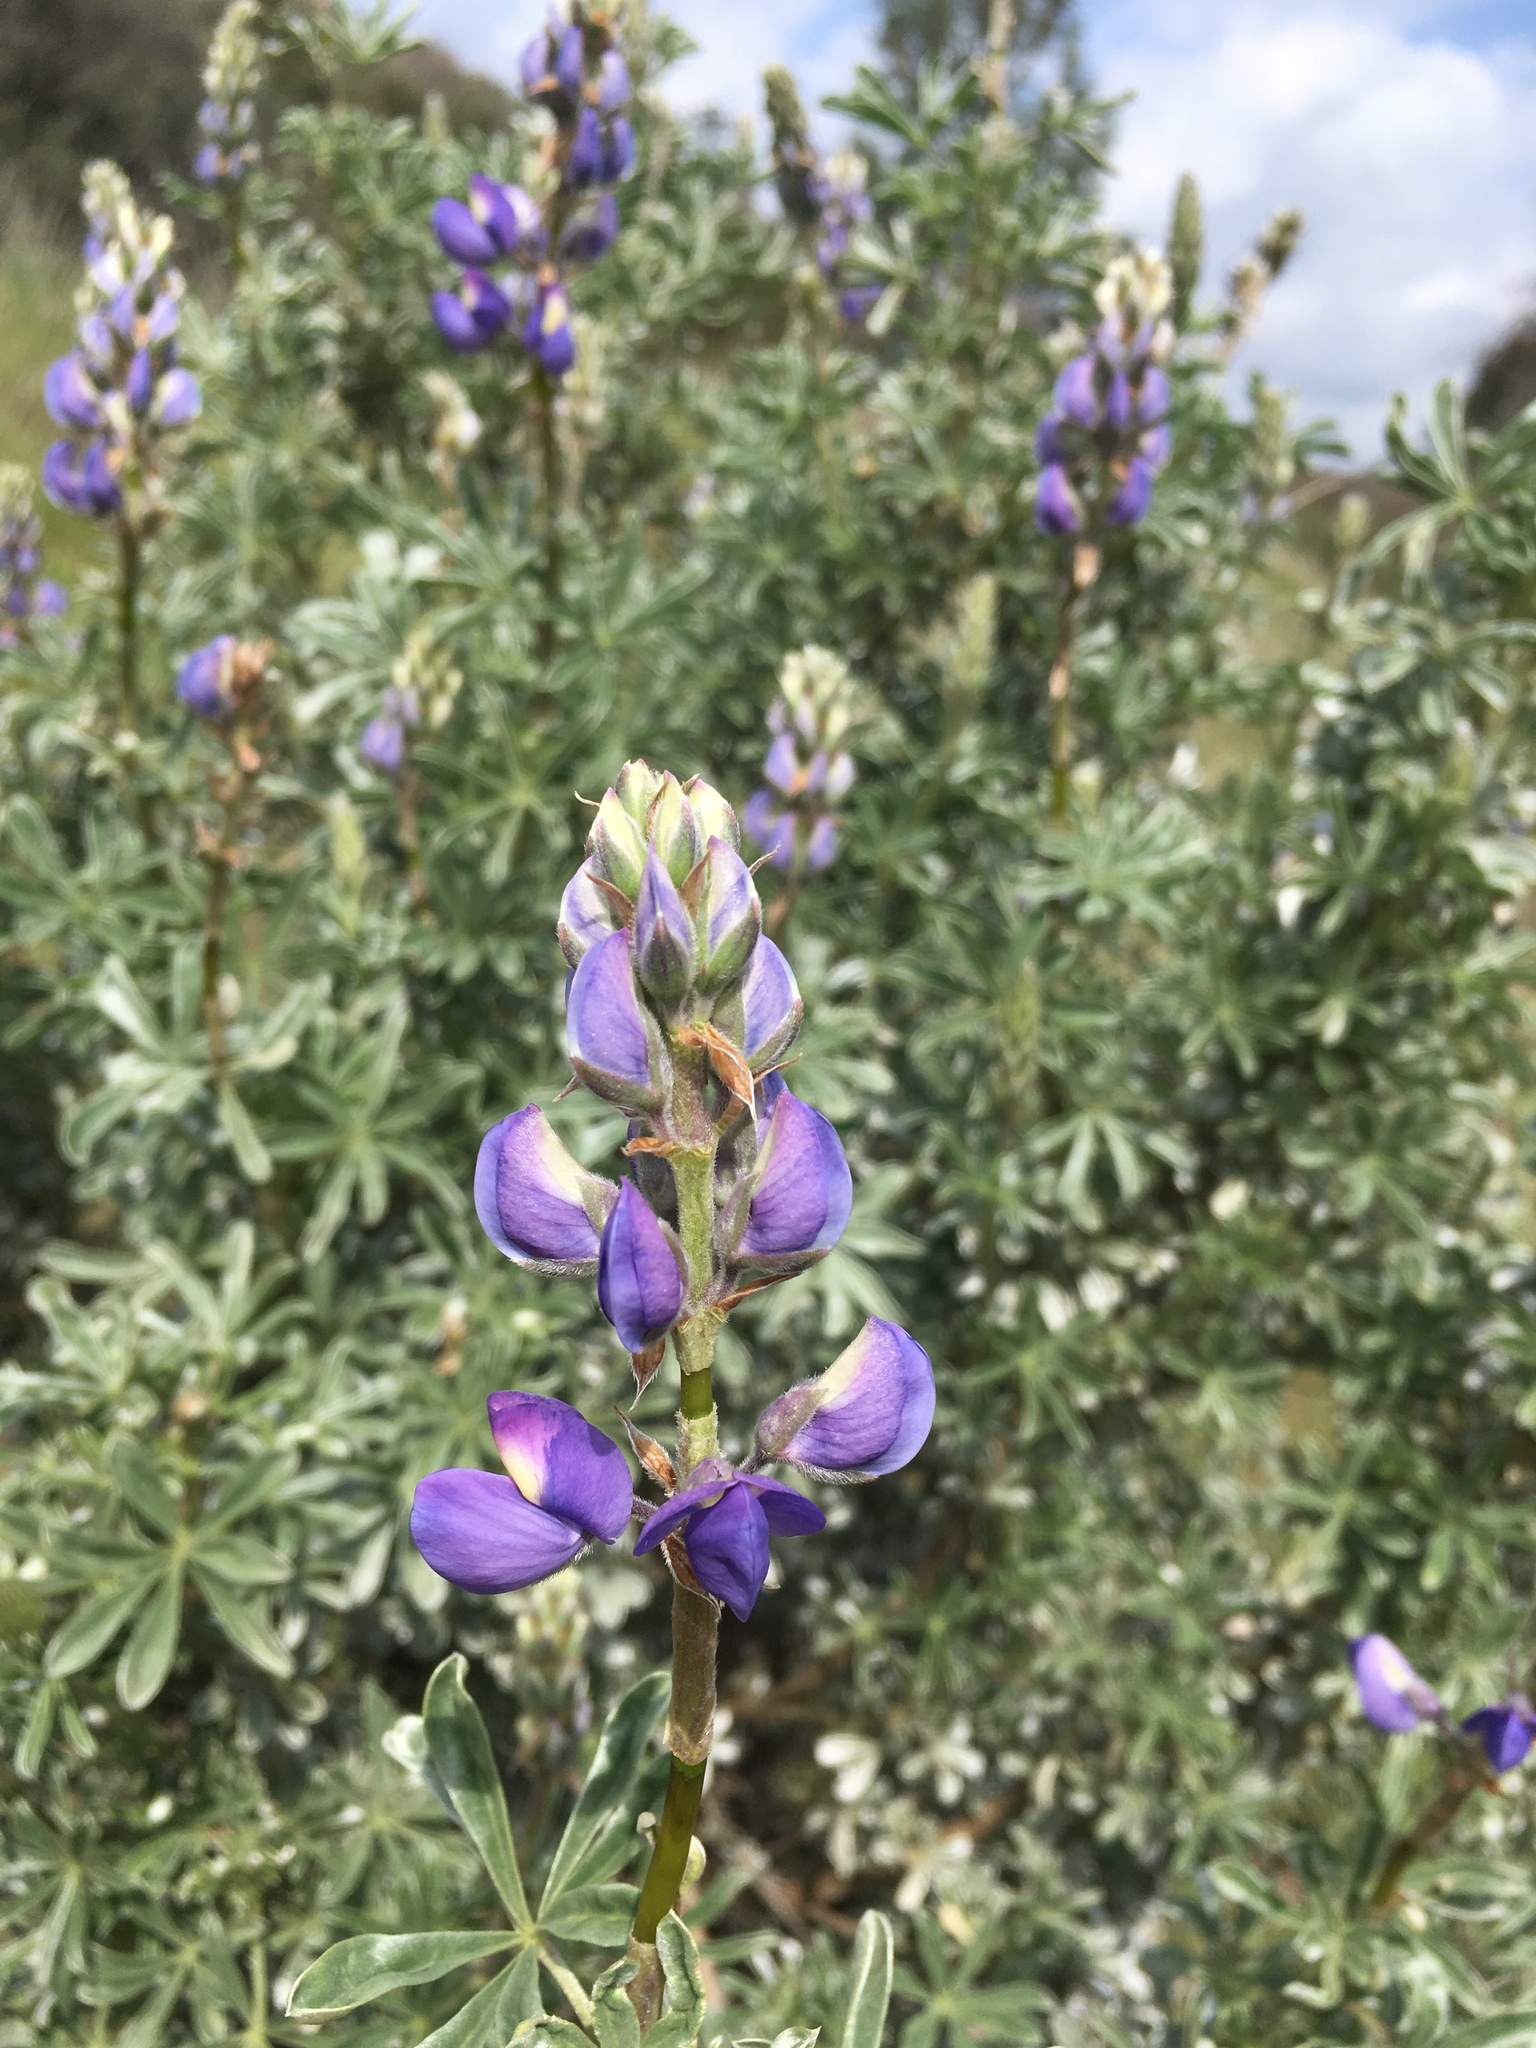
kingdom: Plantae
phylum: Tracheophyta
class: Magnoliopsida
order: Fabales
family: Fabaceae
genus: Lupinus
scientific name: Lupinus albifrons
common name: Foothill lupine
